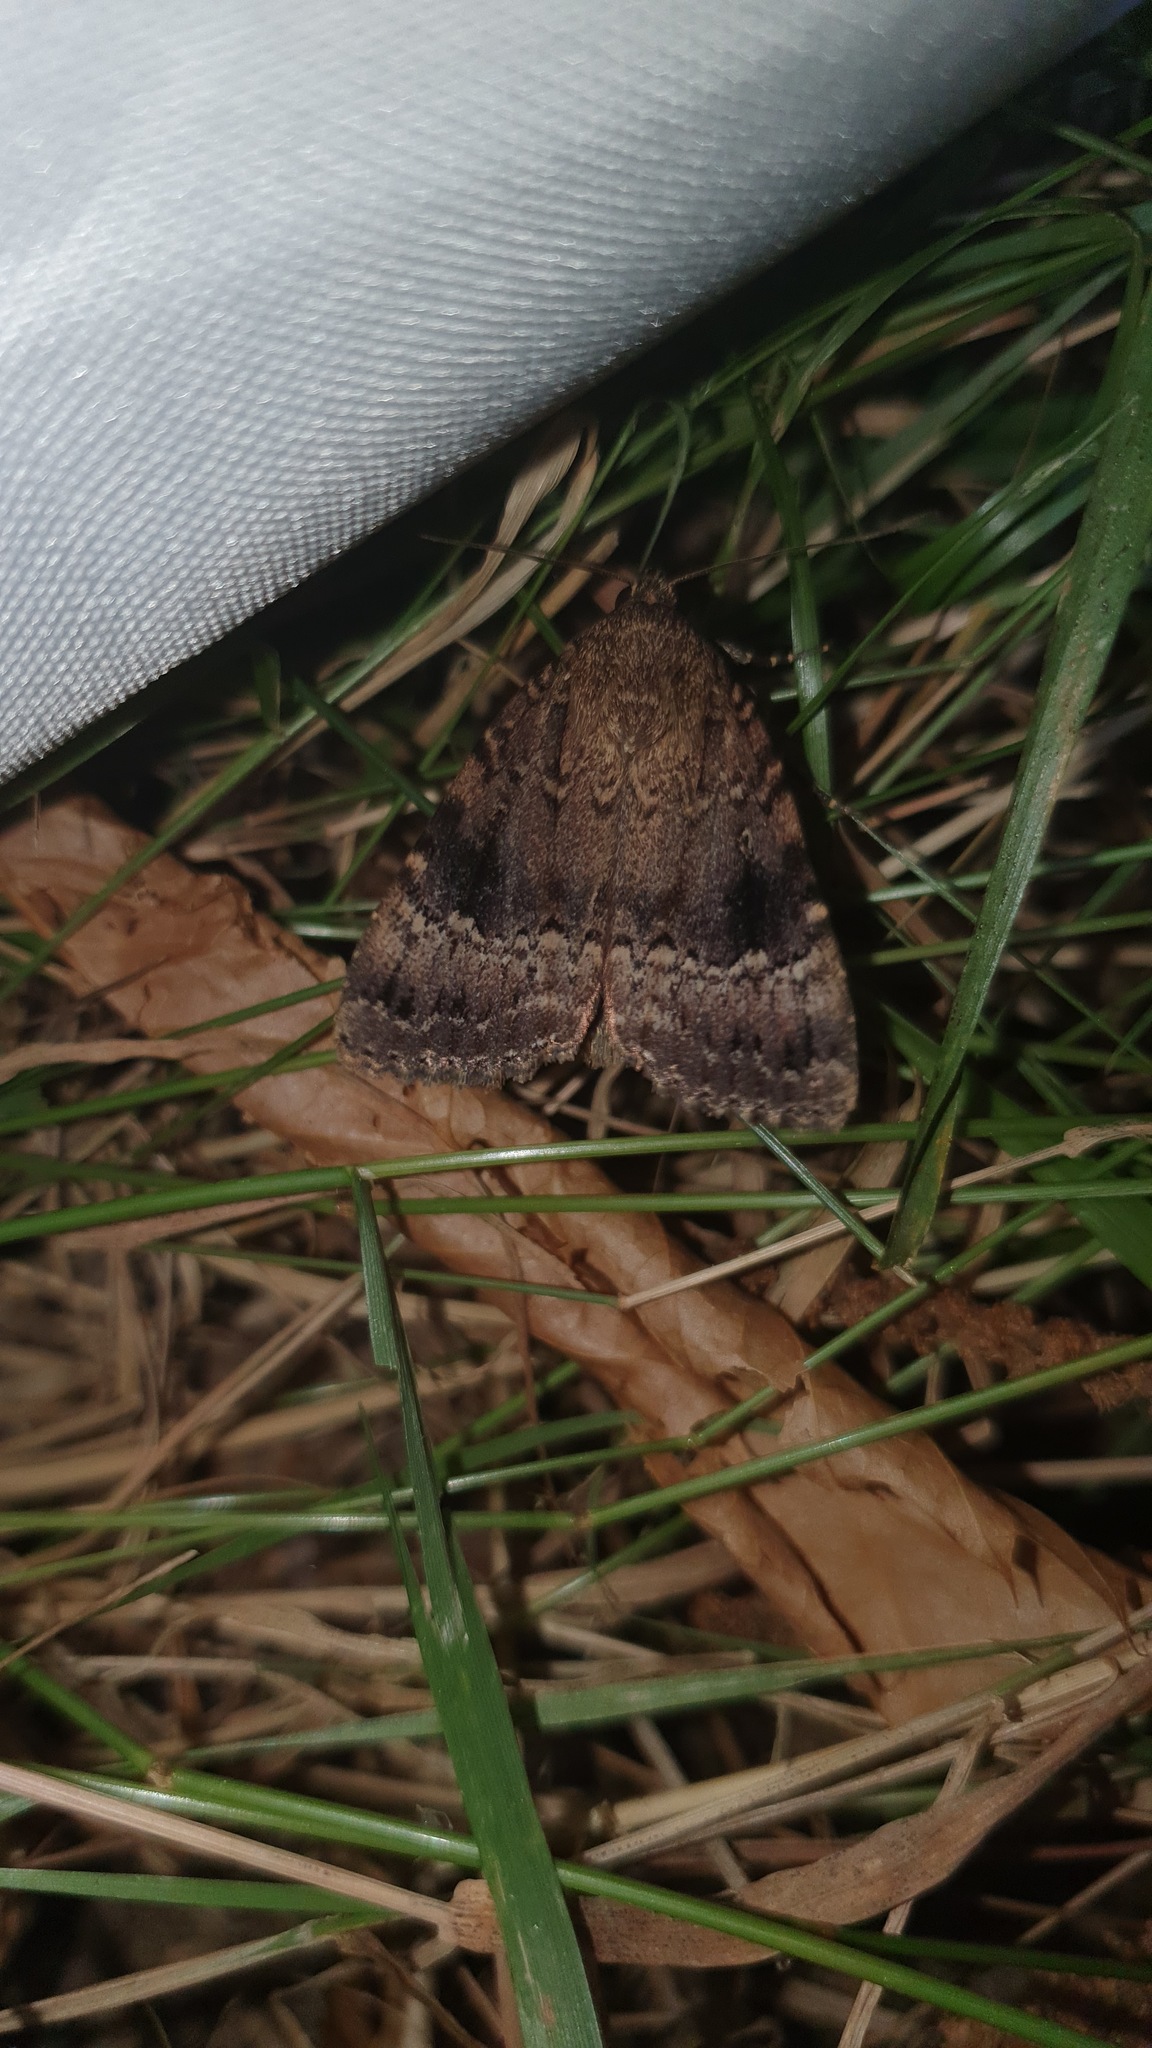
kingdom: Animalia
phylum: Arthropoda
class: Insecta
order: Lepidoptera
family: Noctuidae
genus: Amphipyra
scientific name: Amphipyra pyramidea
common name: Copper underwing
